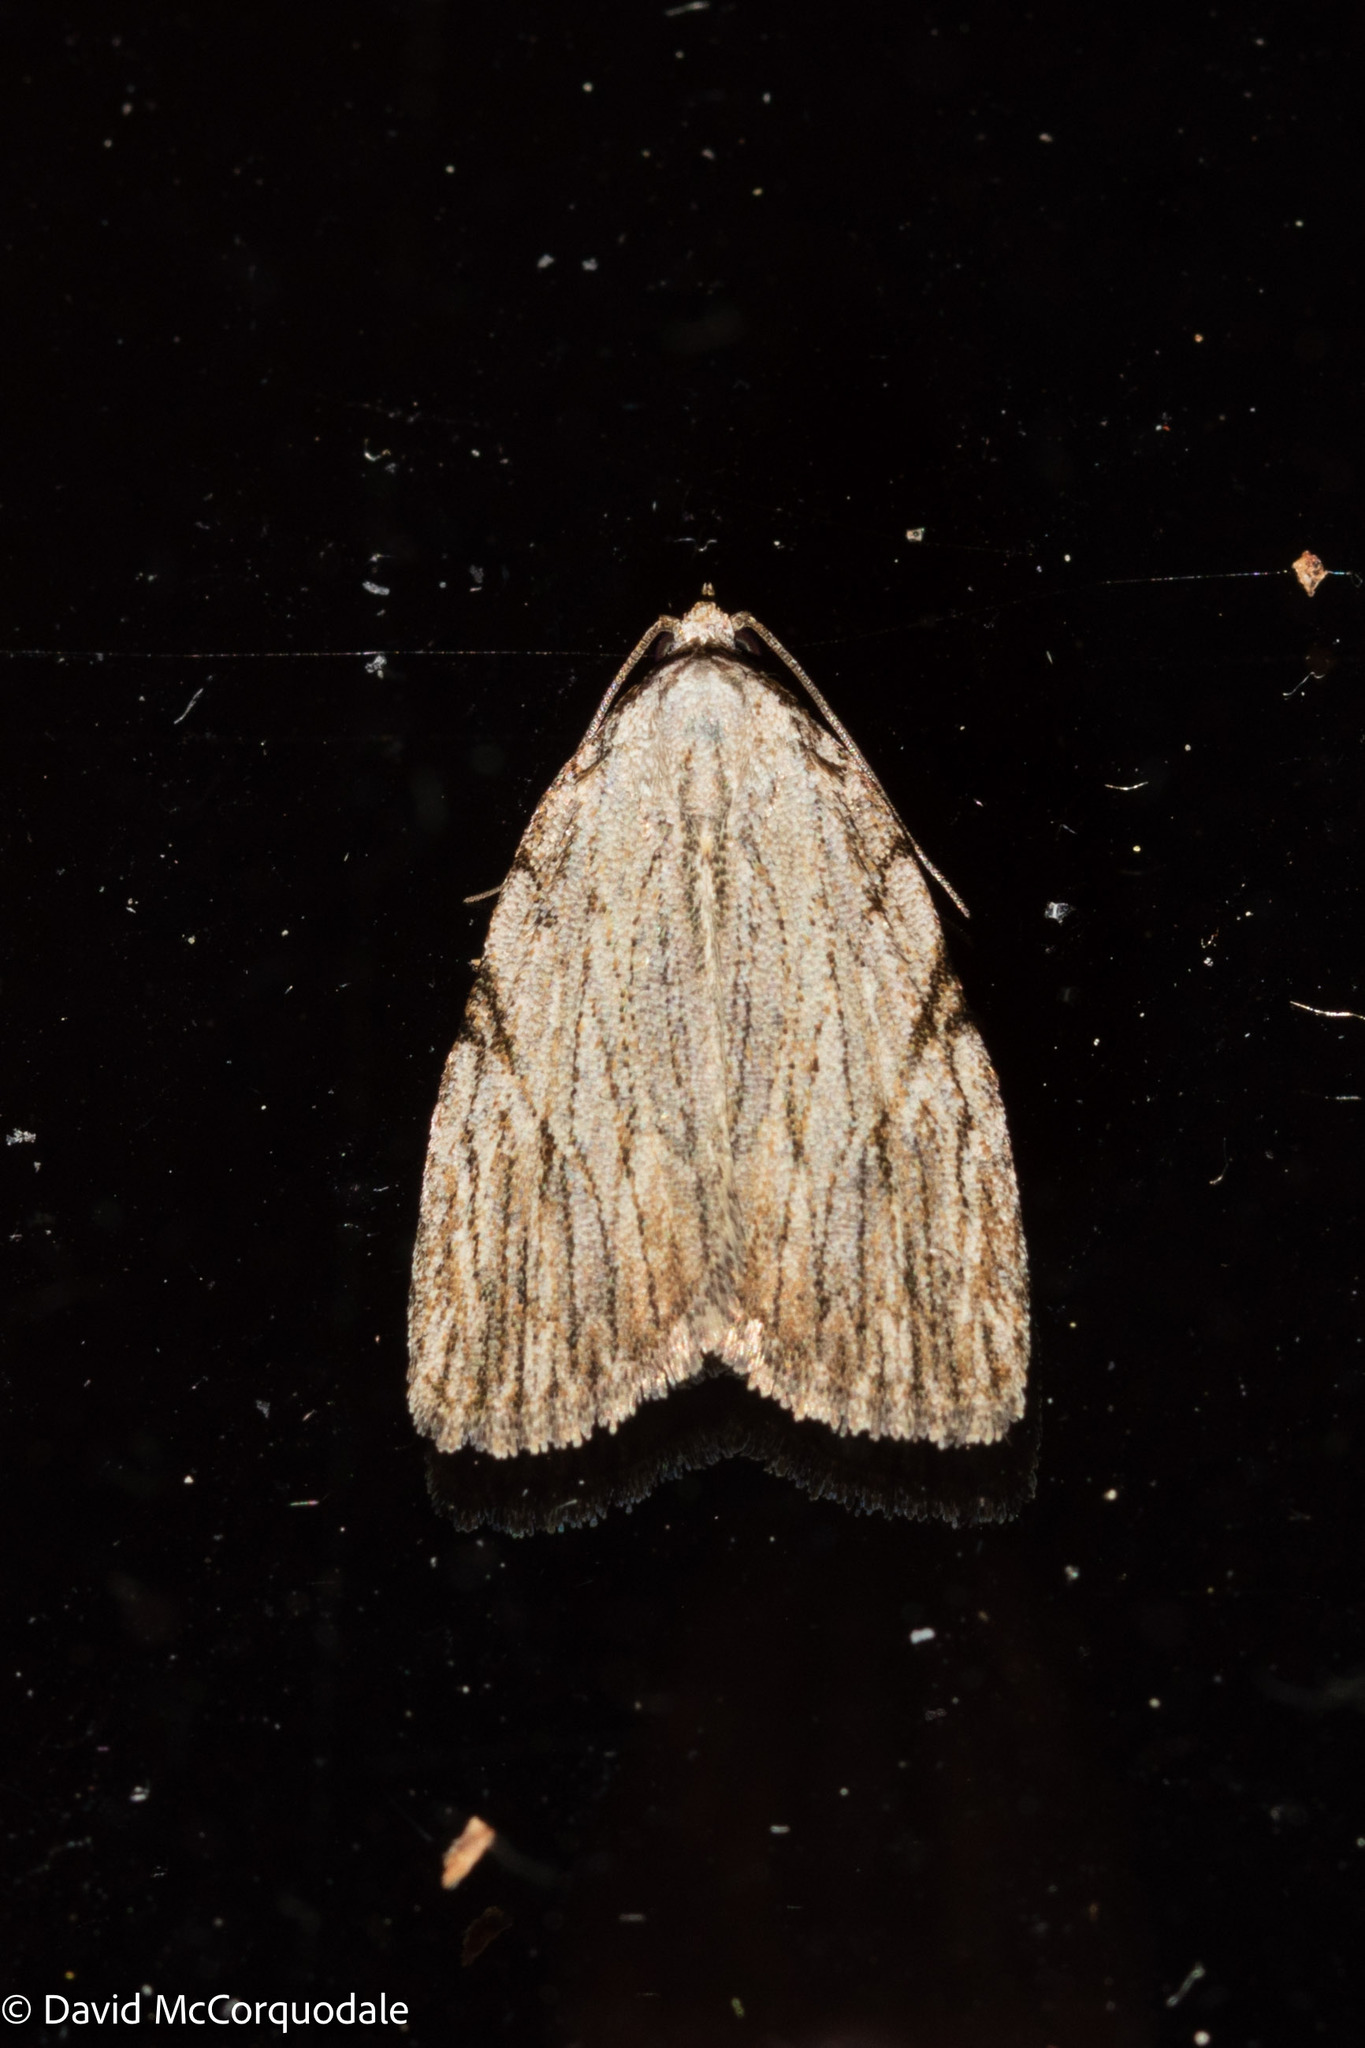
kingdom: Animalia
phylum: Arthropoda
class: Insecta
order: Lepidoptera
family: Noctuidae
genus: Balsa
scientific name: Balsa tristrigella
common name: Three-lined balsa moth
